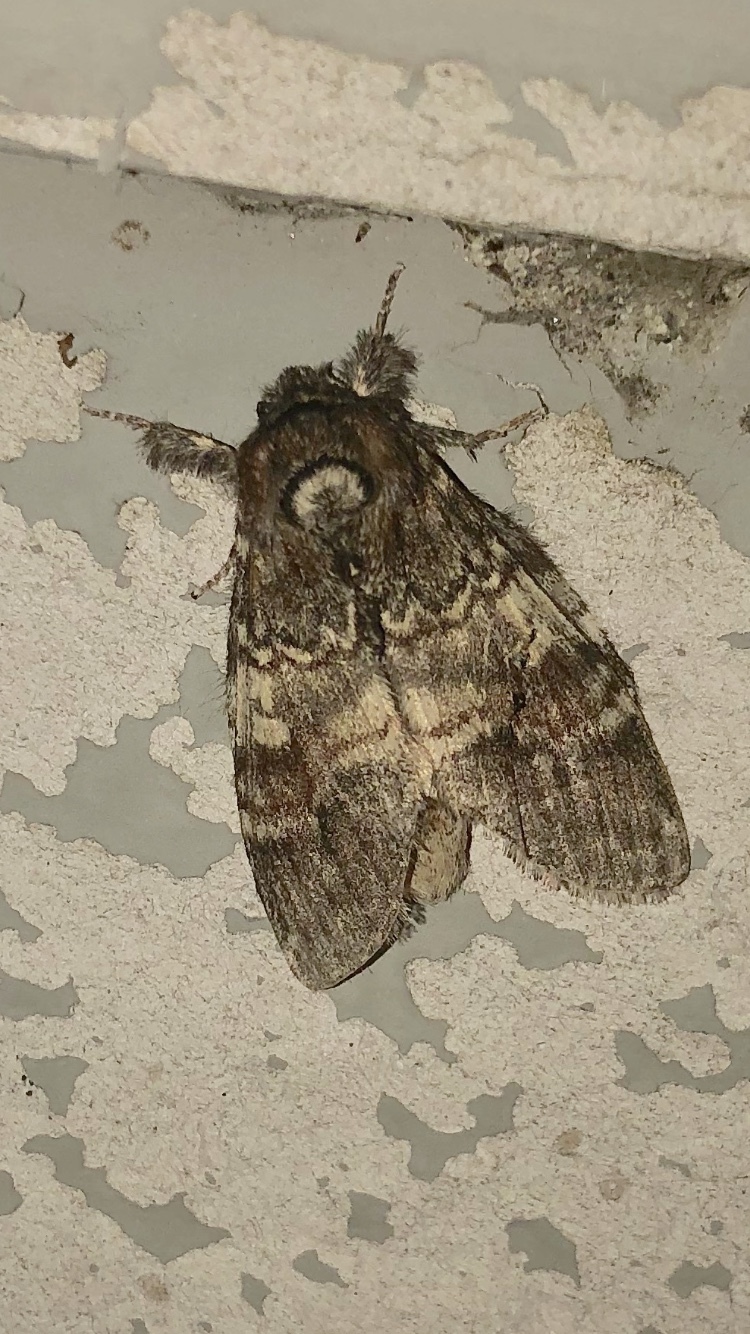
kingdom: Animalia
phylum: Arthropoda
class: Insecta
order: Lepidoptera
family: Notodontidae
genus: Peridea
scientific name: Peridea ferruginea
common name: Chocolate prominent
